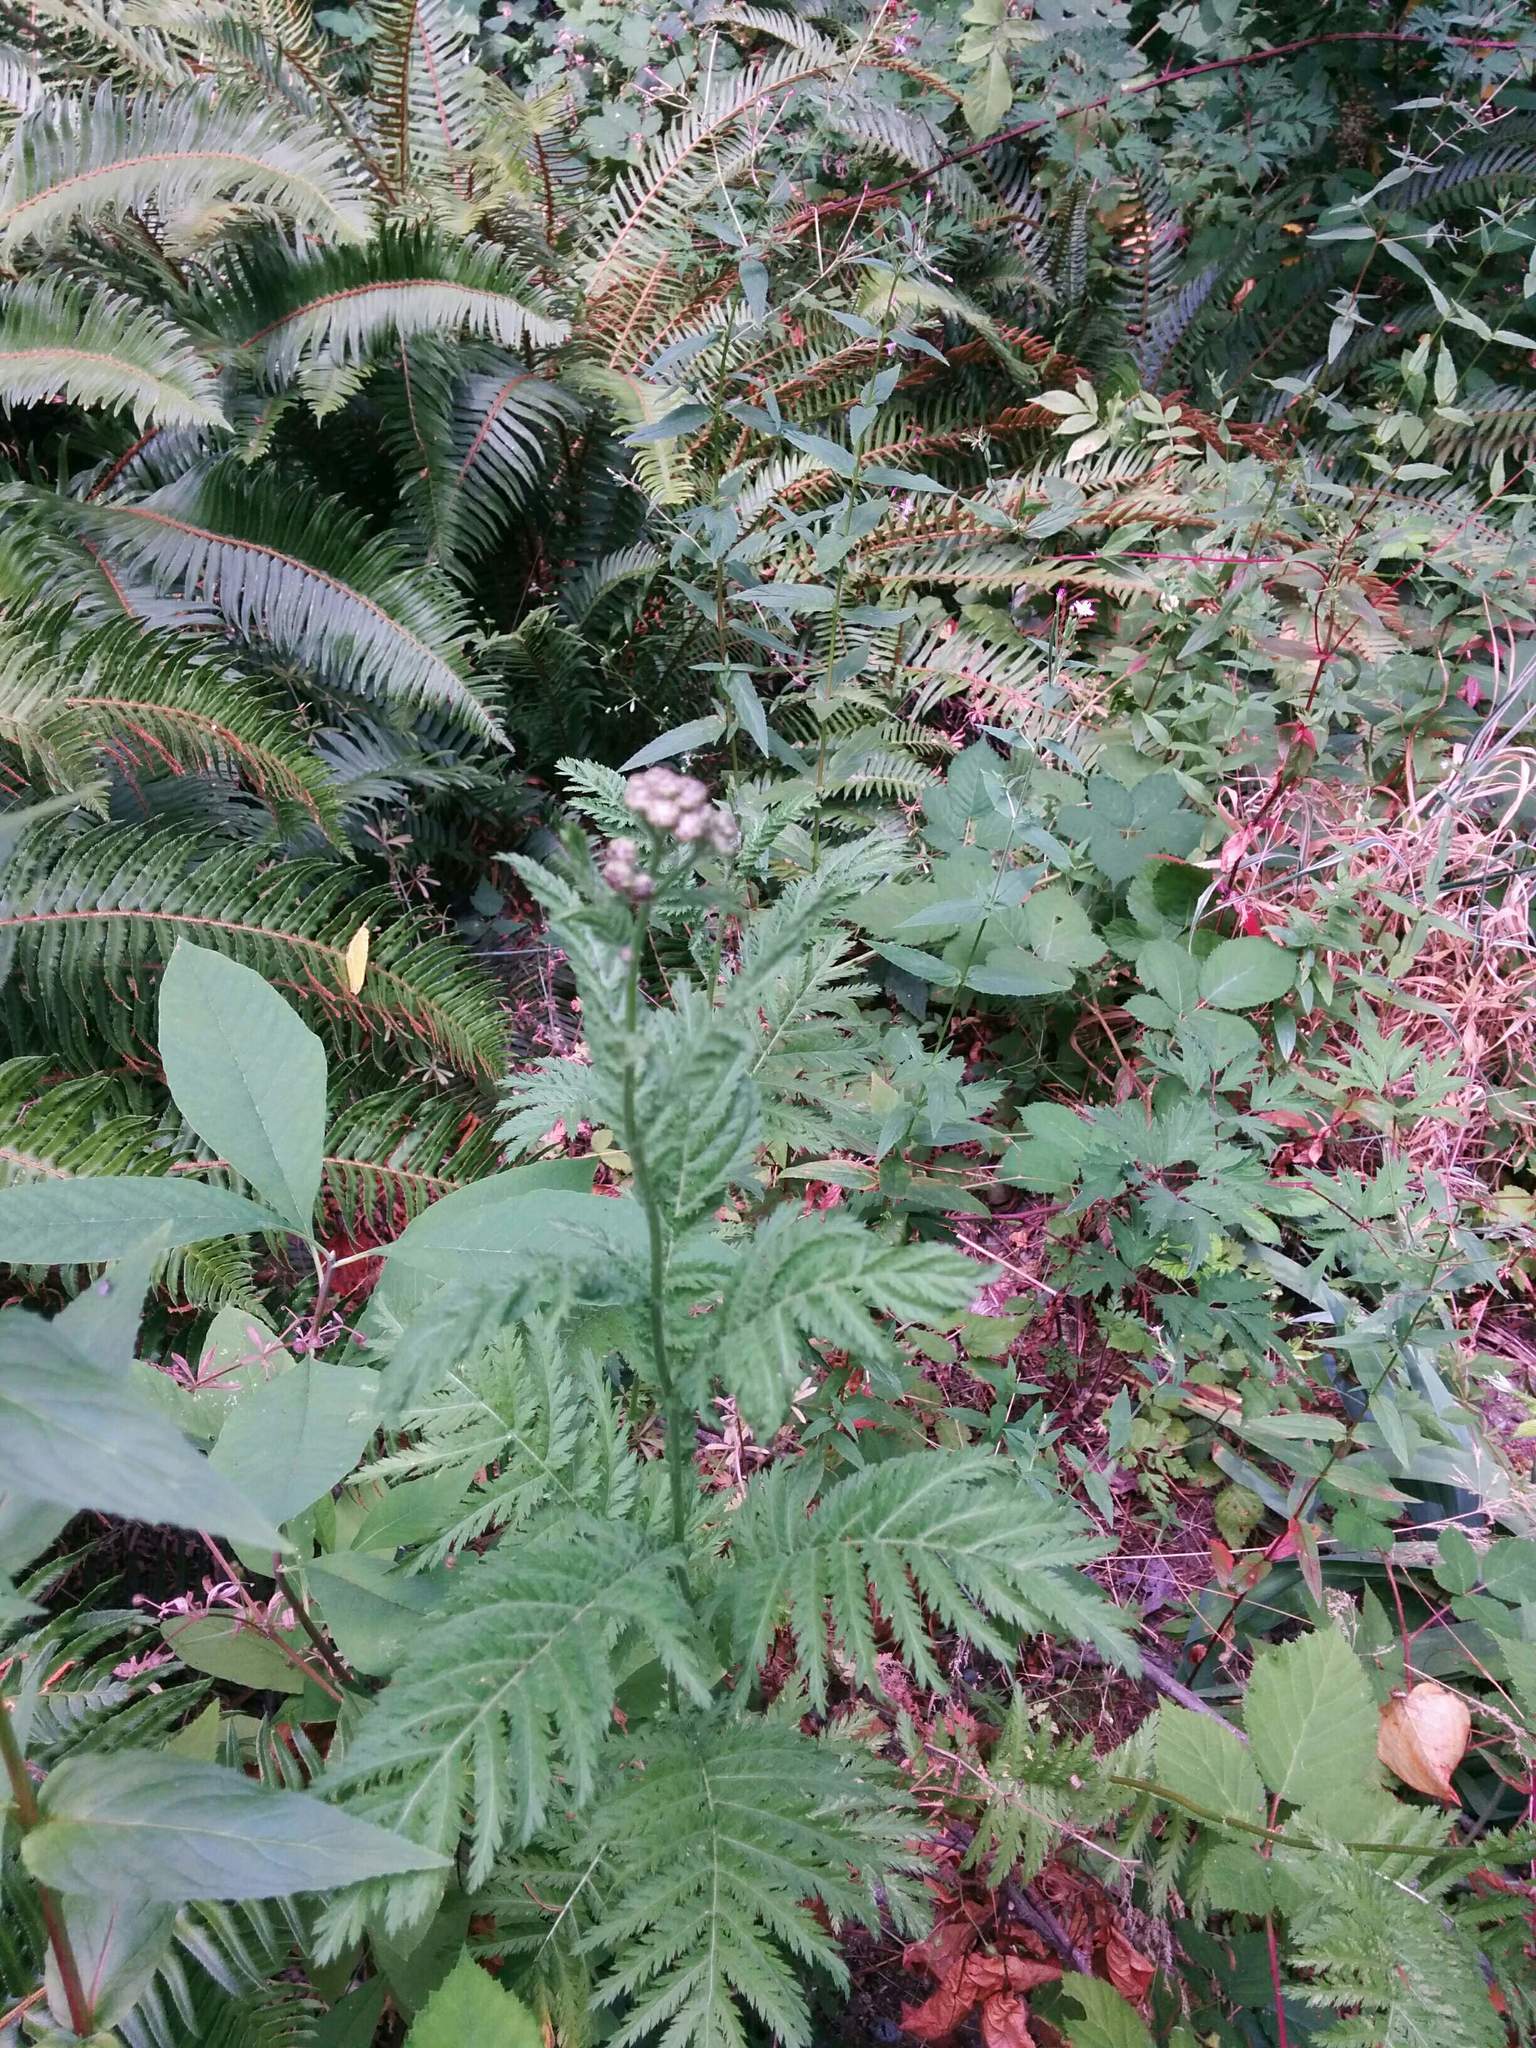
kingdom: Plantae
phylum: Tracheophyta
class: Magnoliopsida
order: Asterales
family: Asteraceae
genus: Tanacetum
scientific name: Tanacetum vulgare
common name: Common tansy
